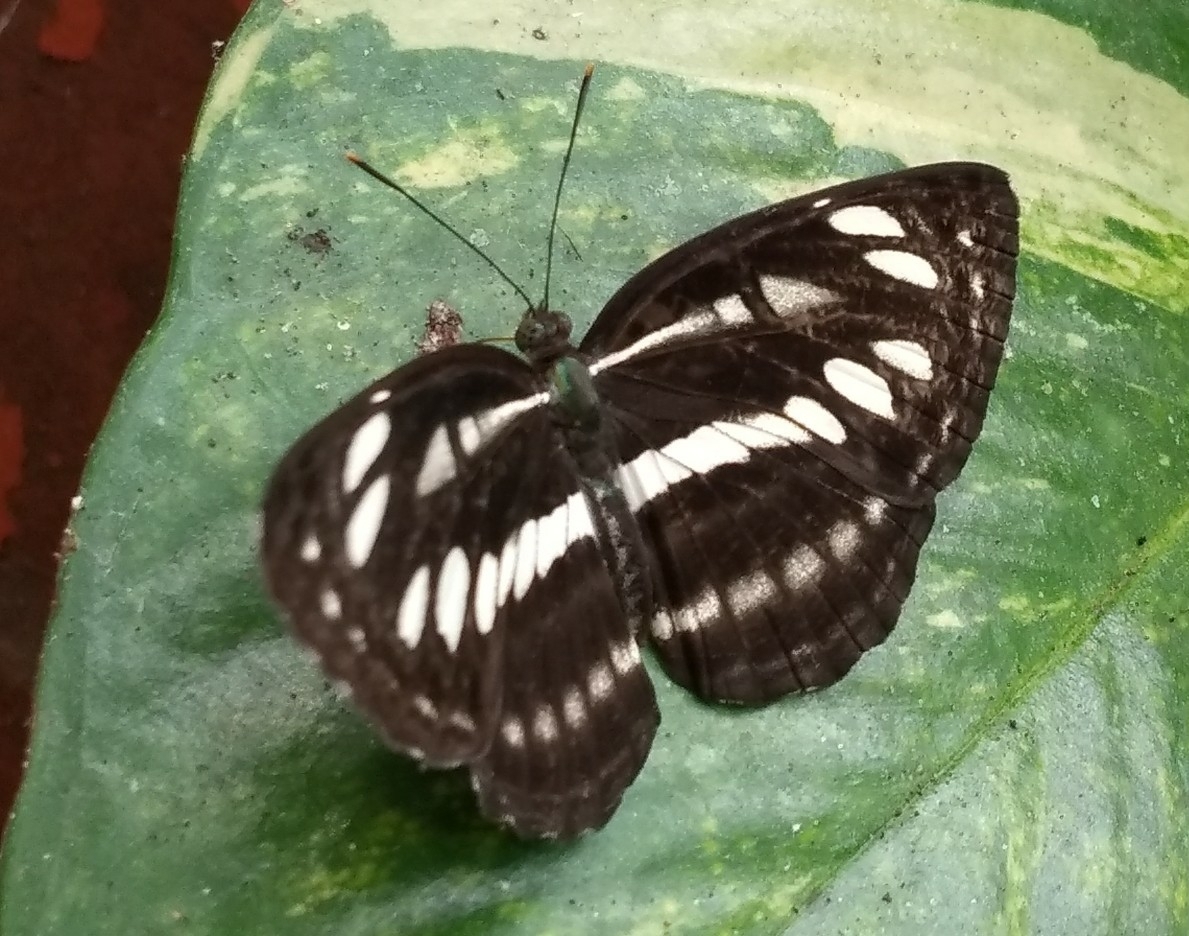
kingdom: Animalia
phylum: Arthropoda
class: Insecta
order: Lepidoptera
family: Nymphalidae
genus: Neptis
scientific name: Neptis hylas
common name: Common sailer
